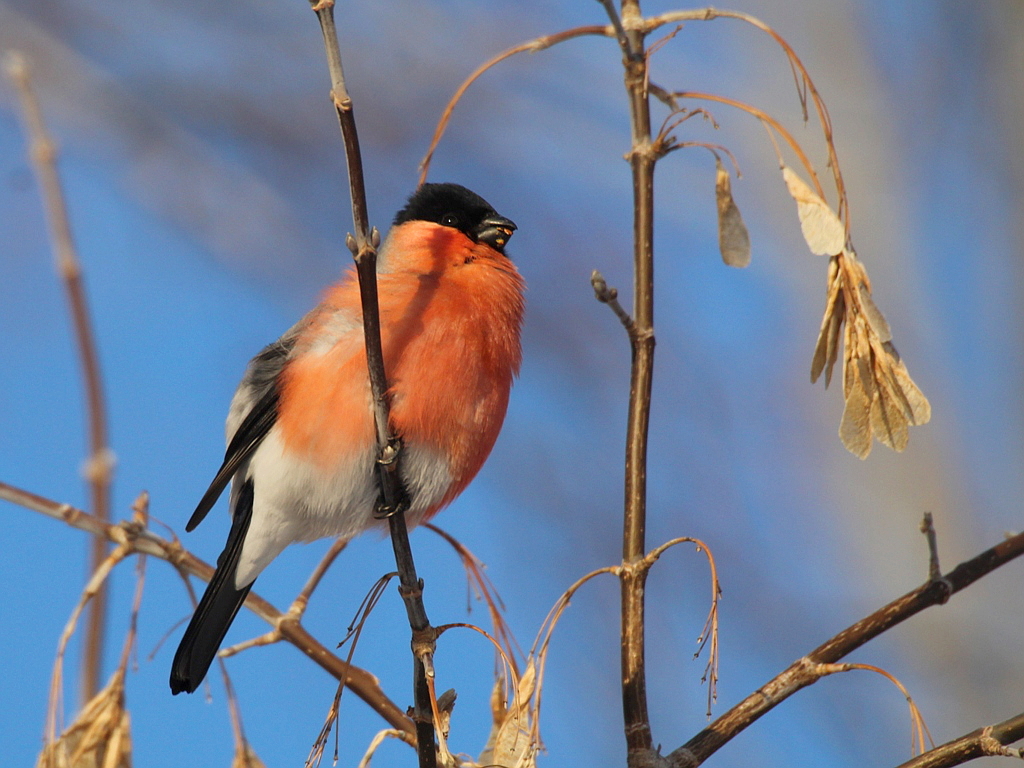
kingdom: Animalia
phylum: Chordata
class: Aves
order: Passeriformes
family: Fringillidae
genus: Pyrrhula
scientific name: Pyrrhula pyrrhula
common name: Eurasian bullfinch
